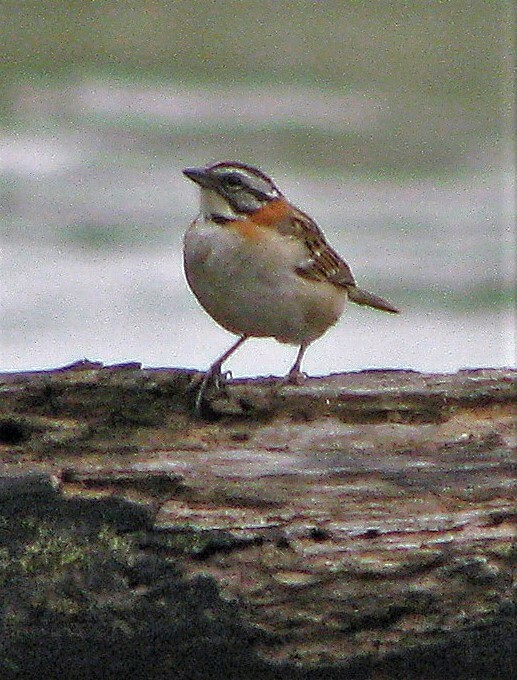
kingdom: Animalia
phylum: Chordata
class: Aves
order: Passeriformes
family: Passerellidae
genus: Zonotrichia
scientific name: Zonotrichia capensis
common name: Rufous-collared sparrow
